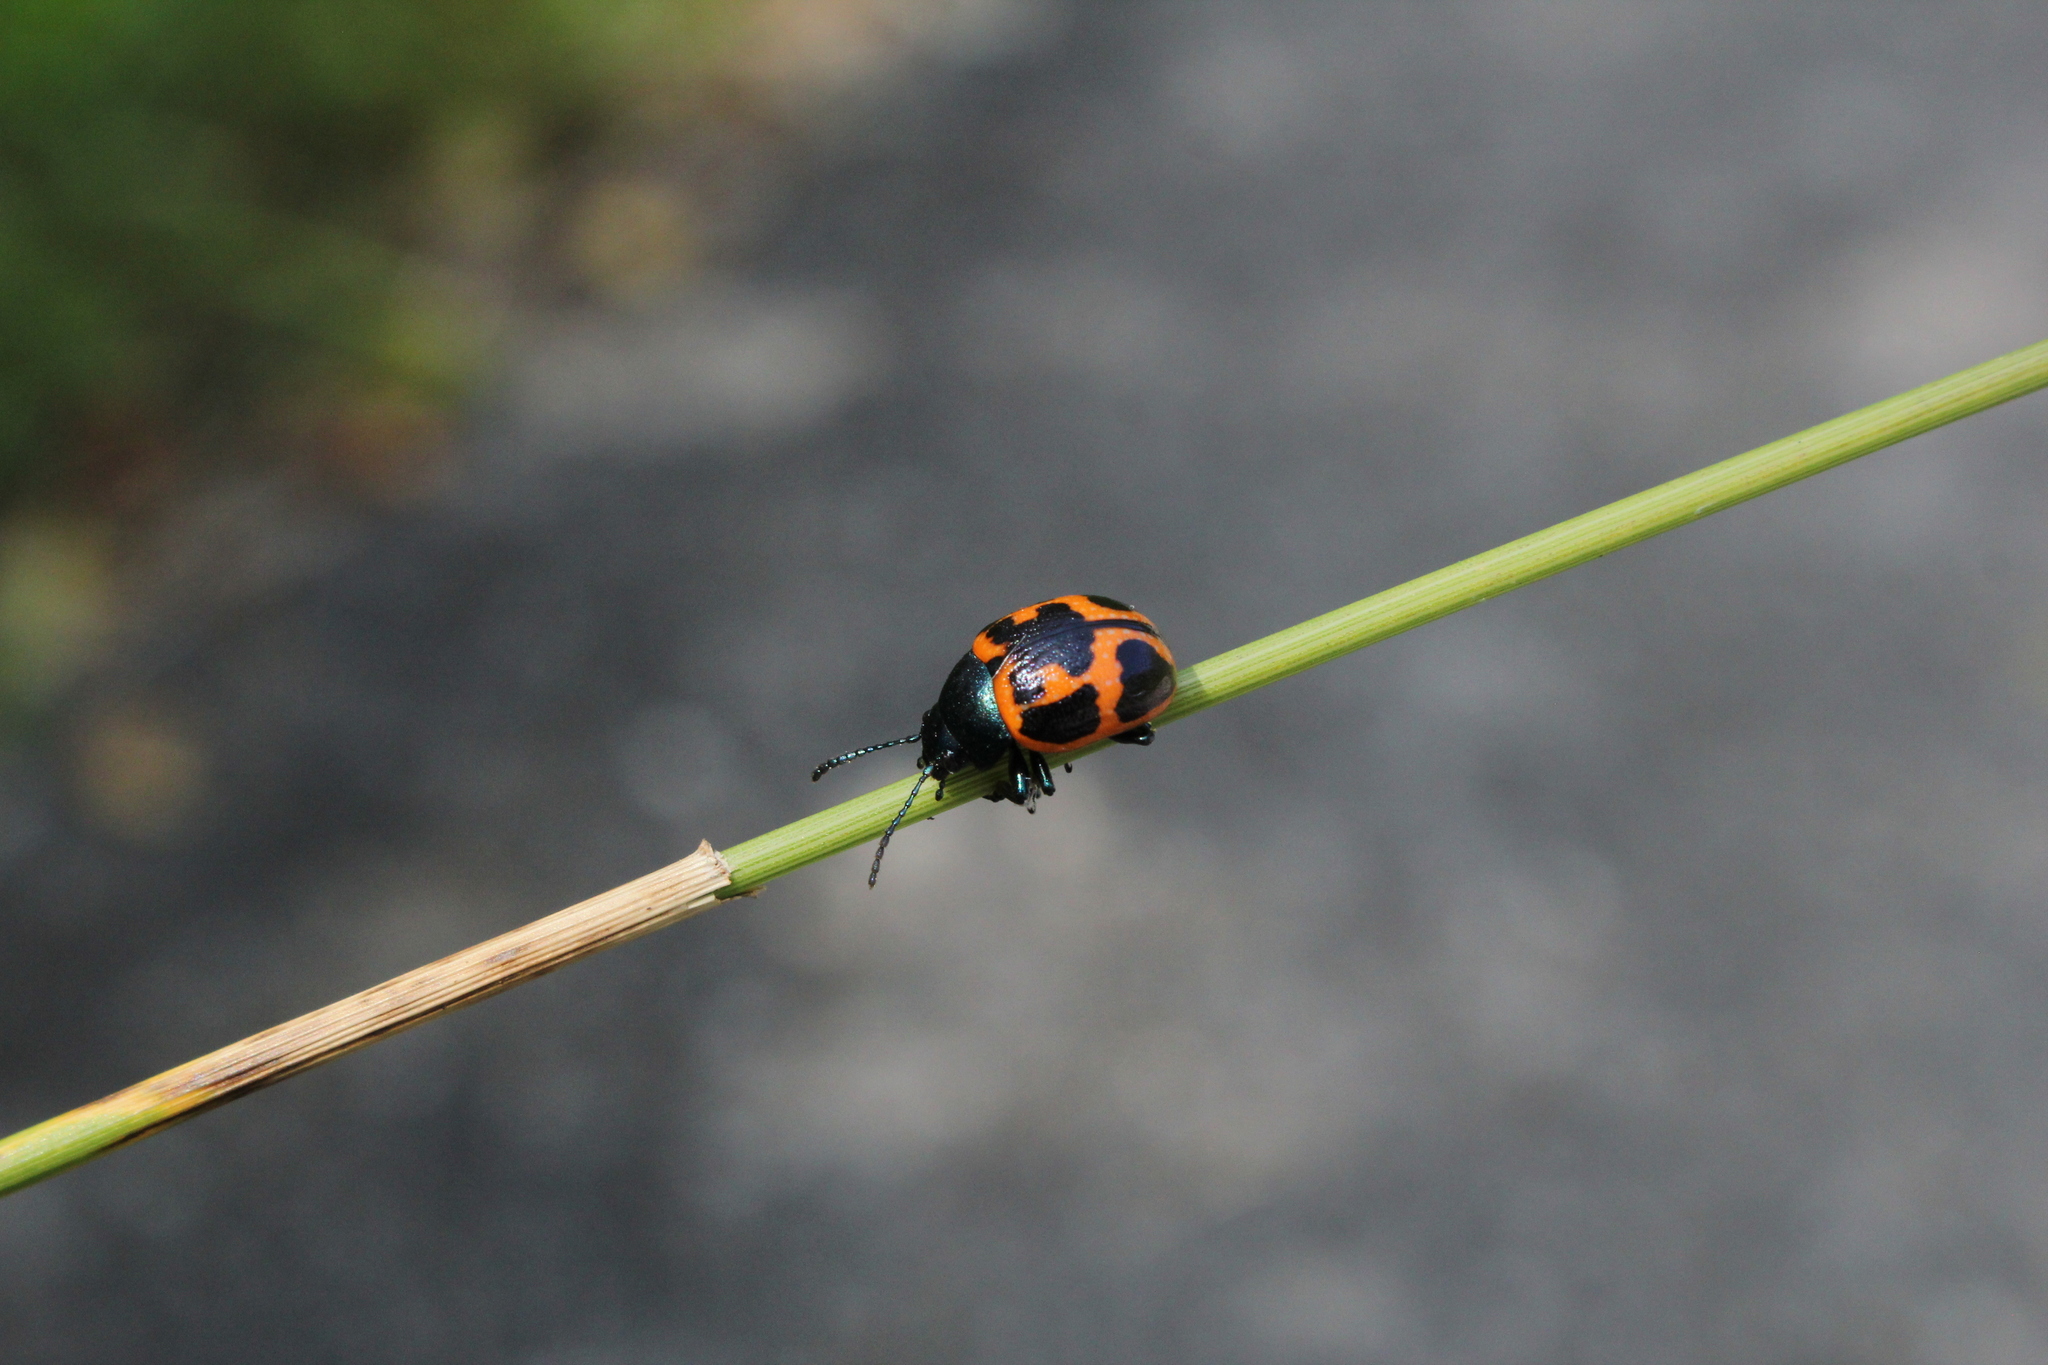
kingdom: Animalia
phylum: Arthropoda
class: Insecta
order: Coleoptera
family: Chrysomelidae
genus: Labidomera
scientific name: Labidomera clivicollis
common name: Swamp milkweed leaf beetle
